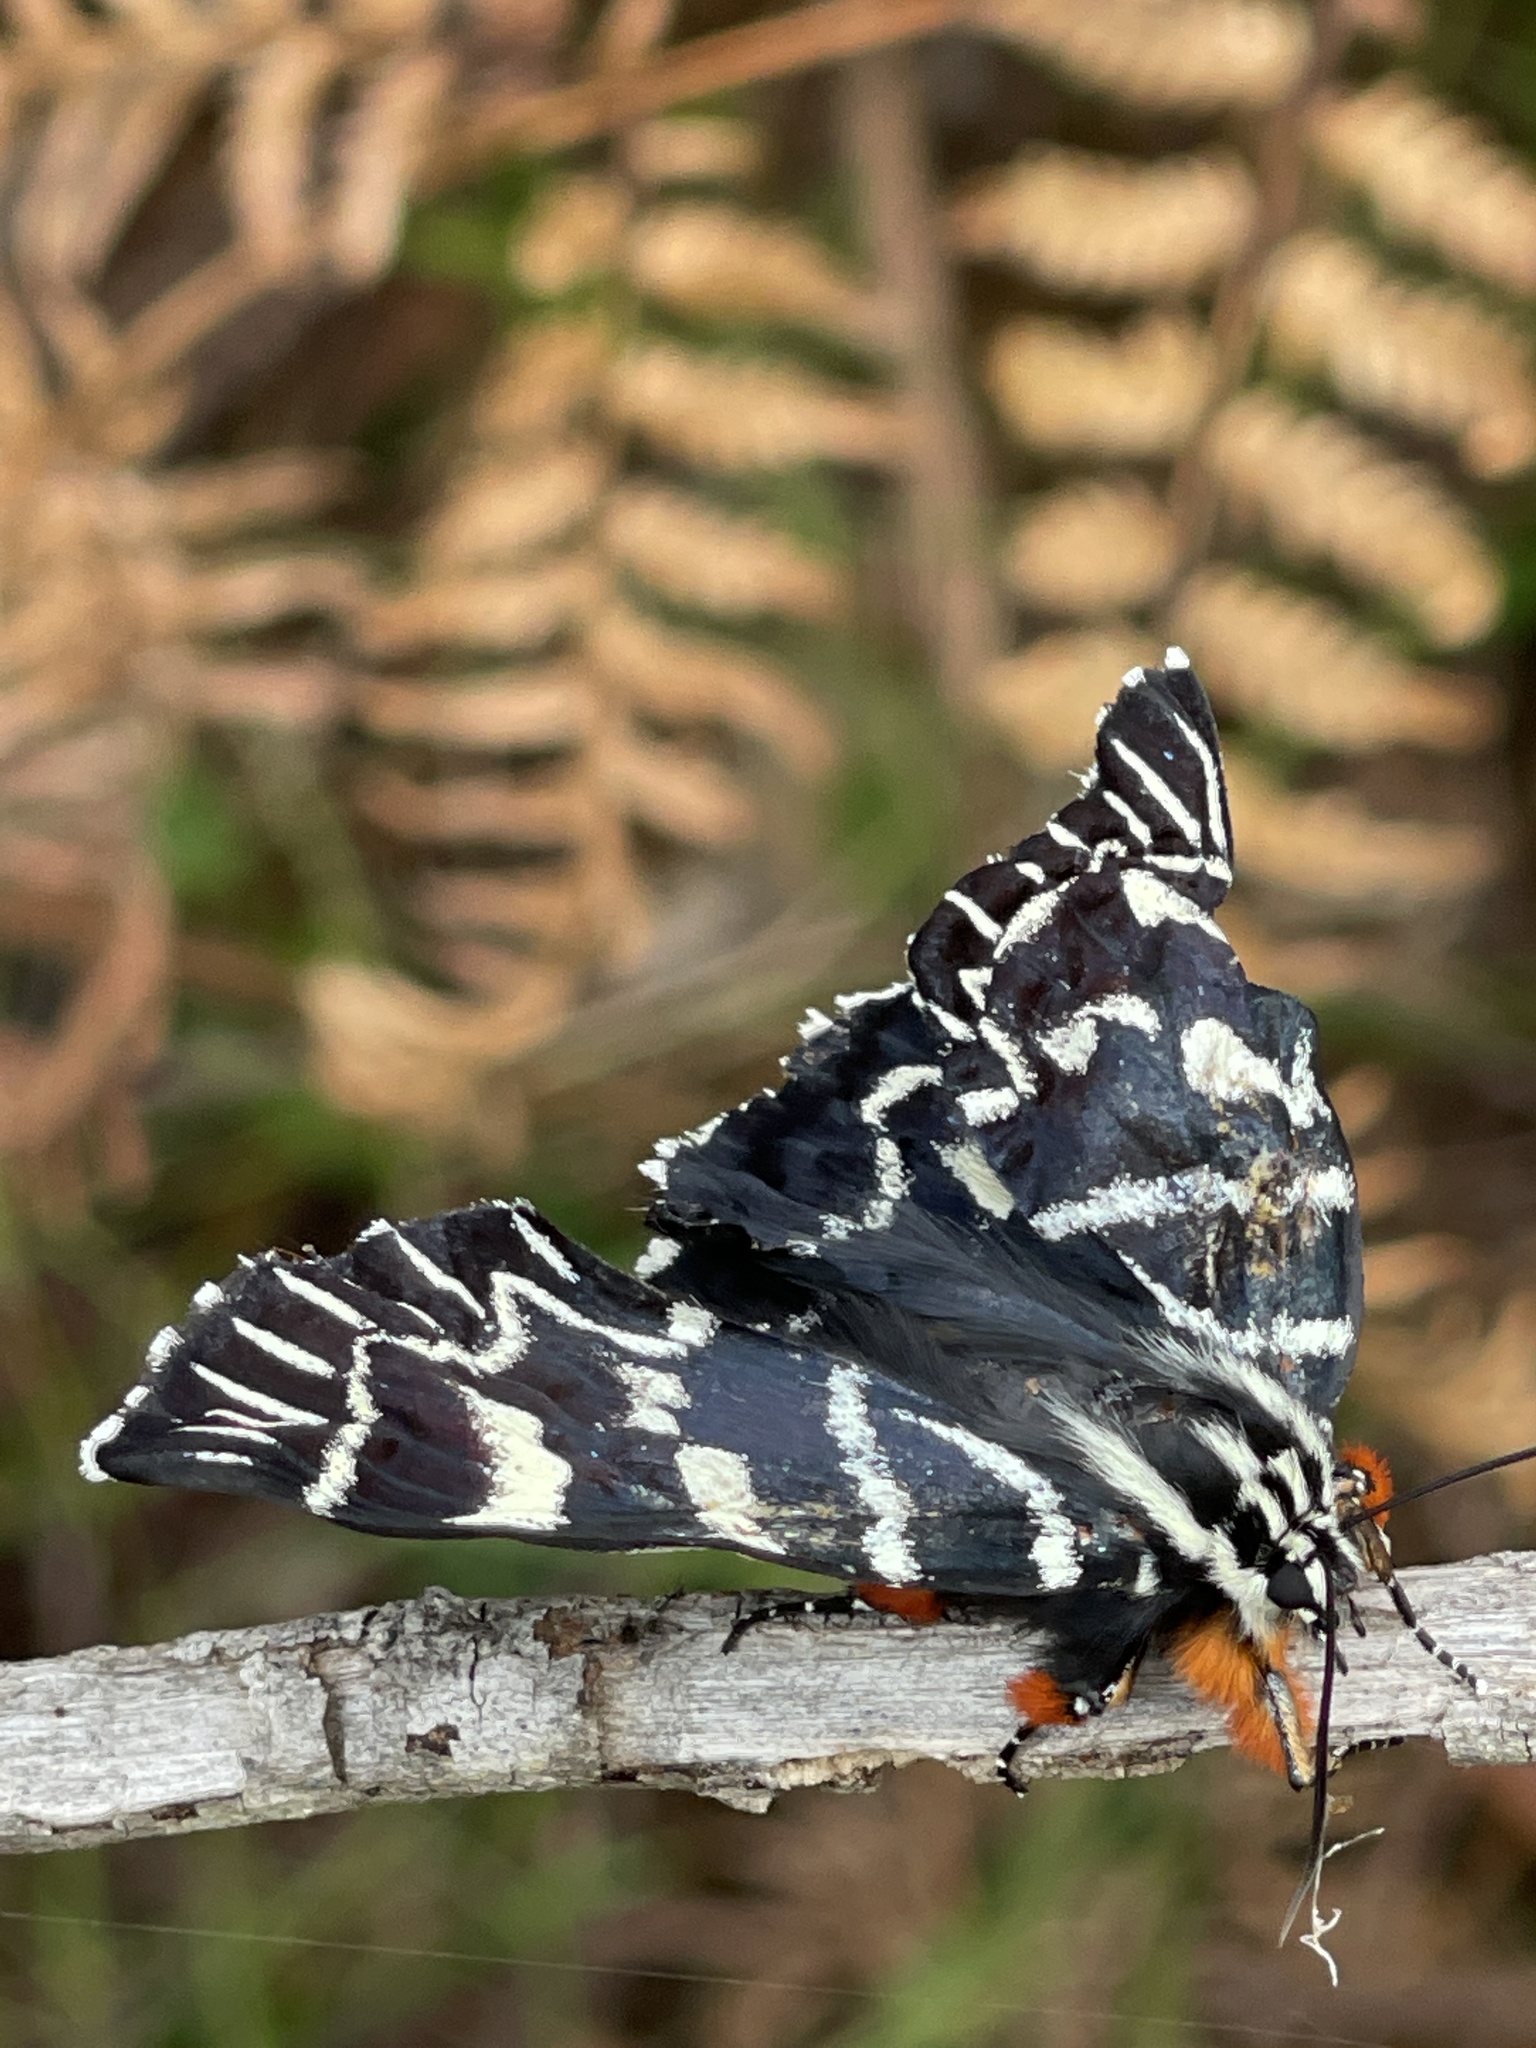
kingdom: Animalia
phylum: Arthropoda
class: Insecta
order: Lepidoptera
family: Noctuidae
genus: Comocrus
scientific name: Comocrus behri
